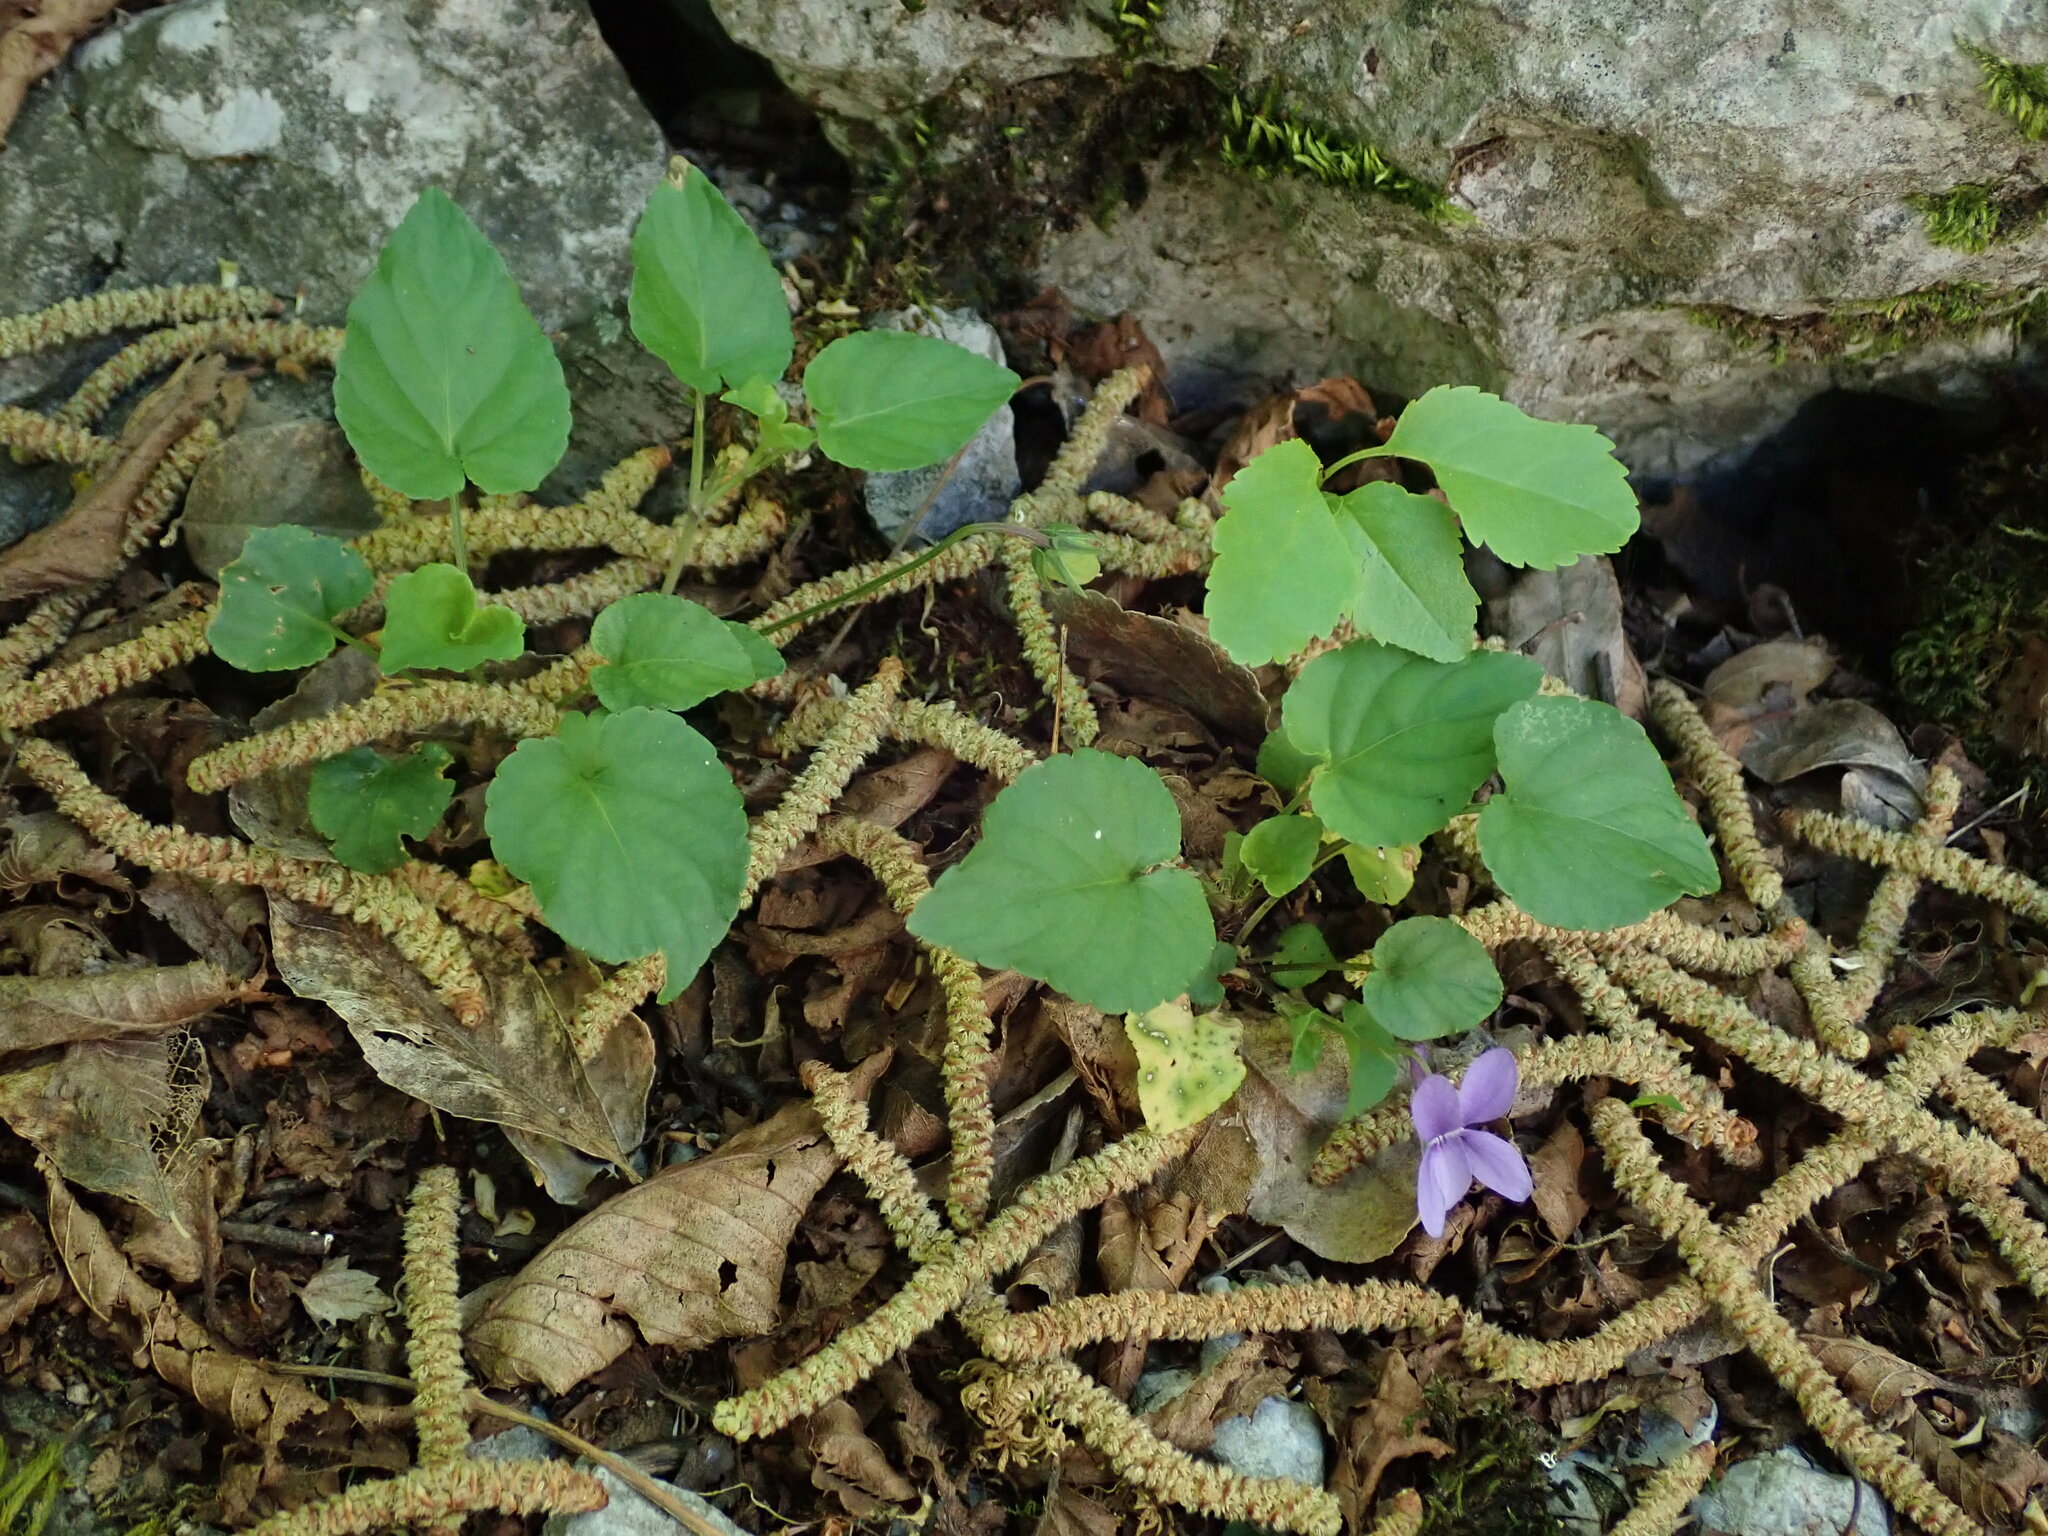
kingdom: Plantae
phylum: Tracheophyta
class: Magnoliopsida
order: Malpighiales
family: Violaceae
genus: Viola
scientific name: Viola reichenbachiana
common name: Early dog-violet
